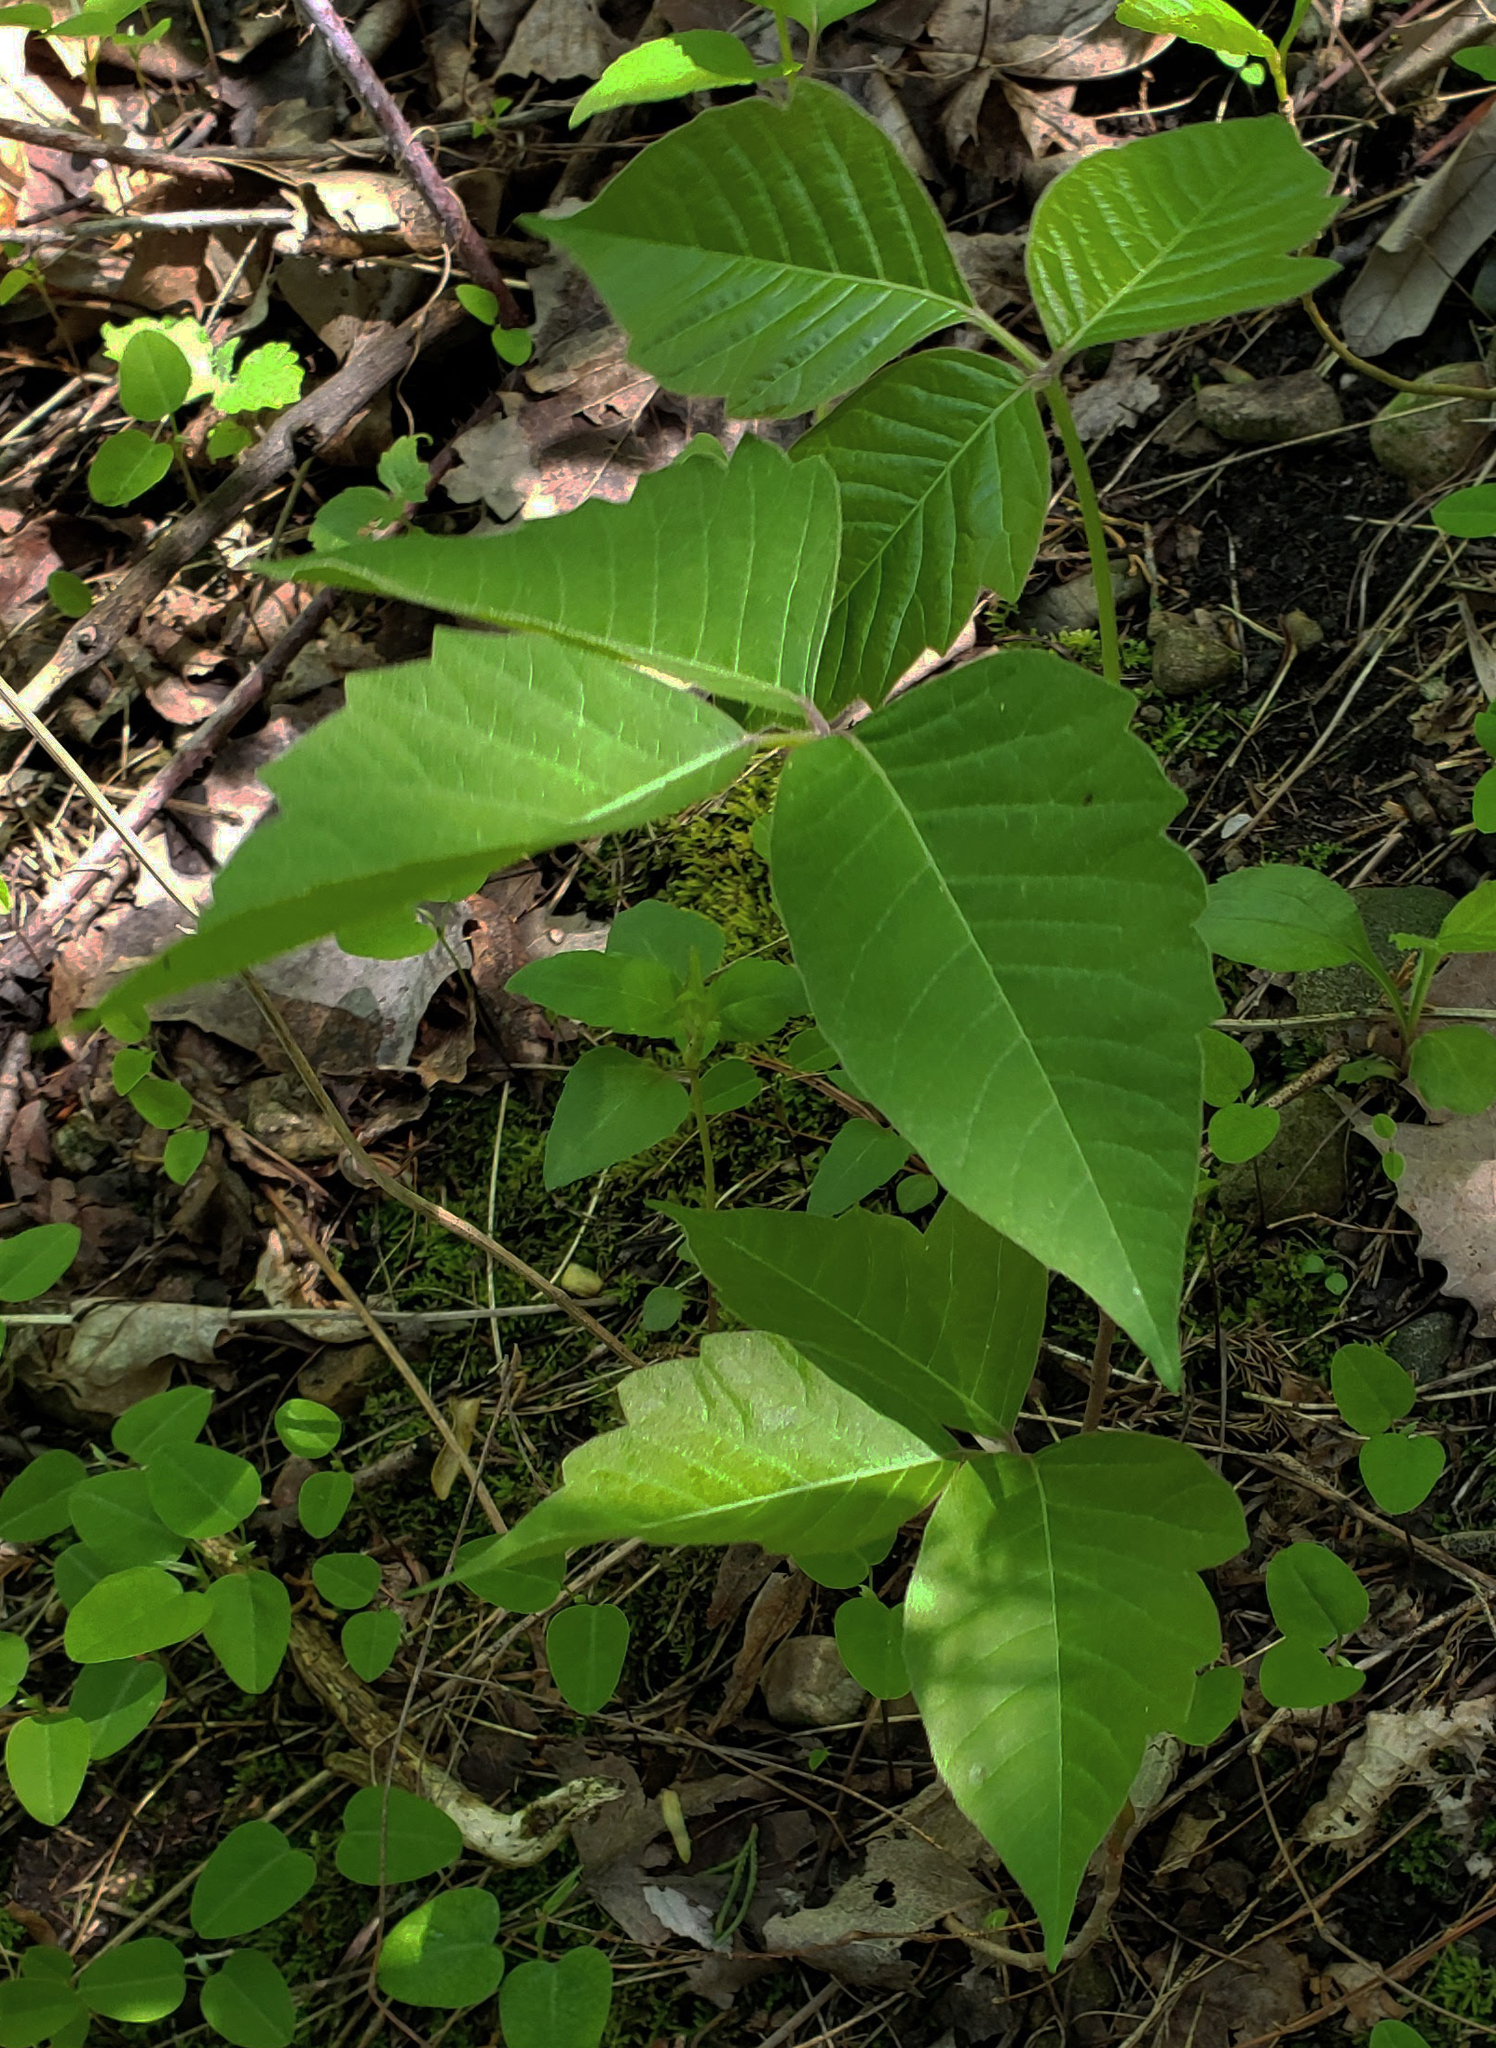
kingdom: Plantae
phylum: Tracheophyta
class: Magnoliopsida
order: Sapindales
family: Anacardiaceae
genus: Toxicodendron
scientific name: Toxicodendron rydbergii
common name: Rydberg's poison-ivy
